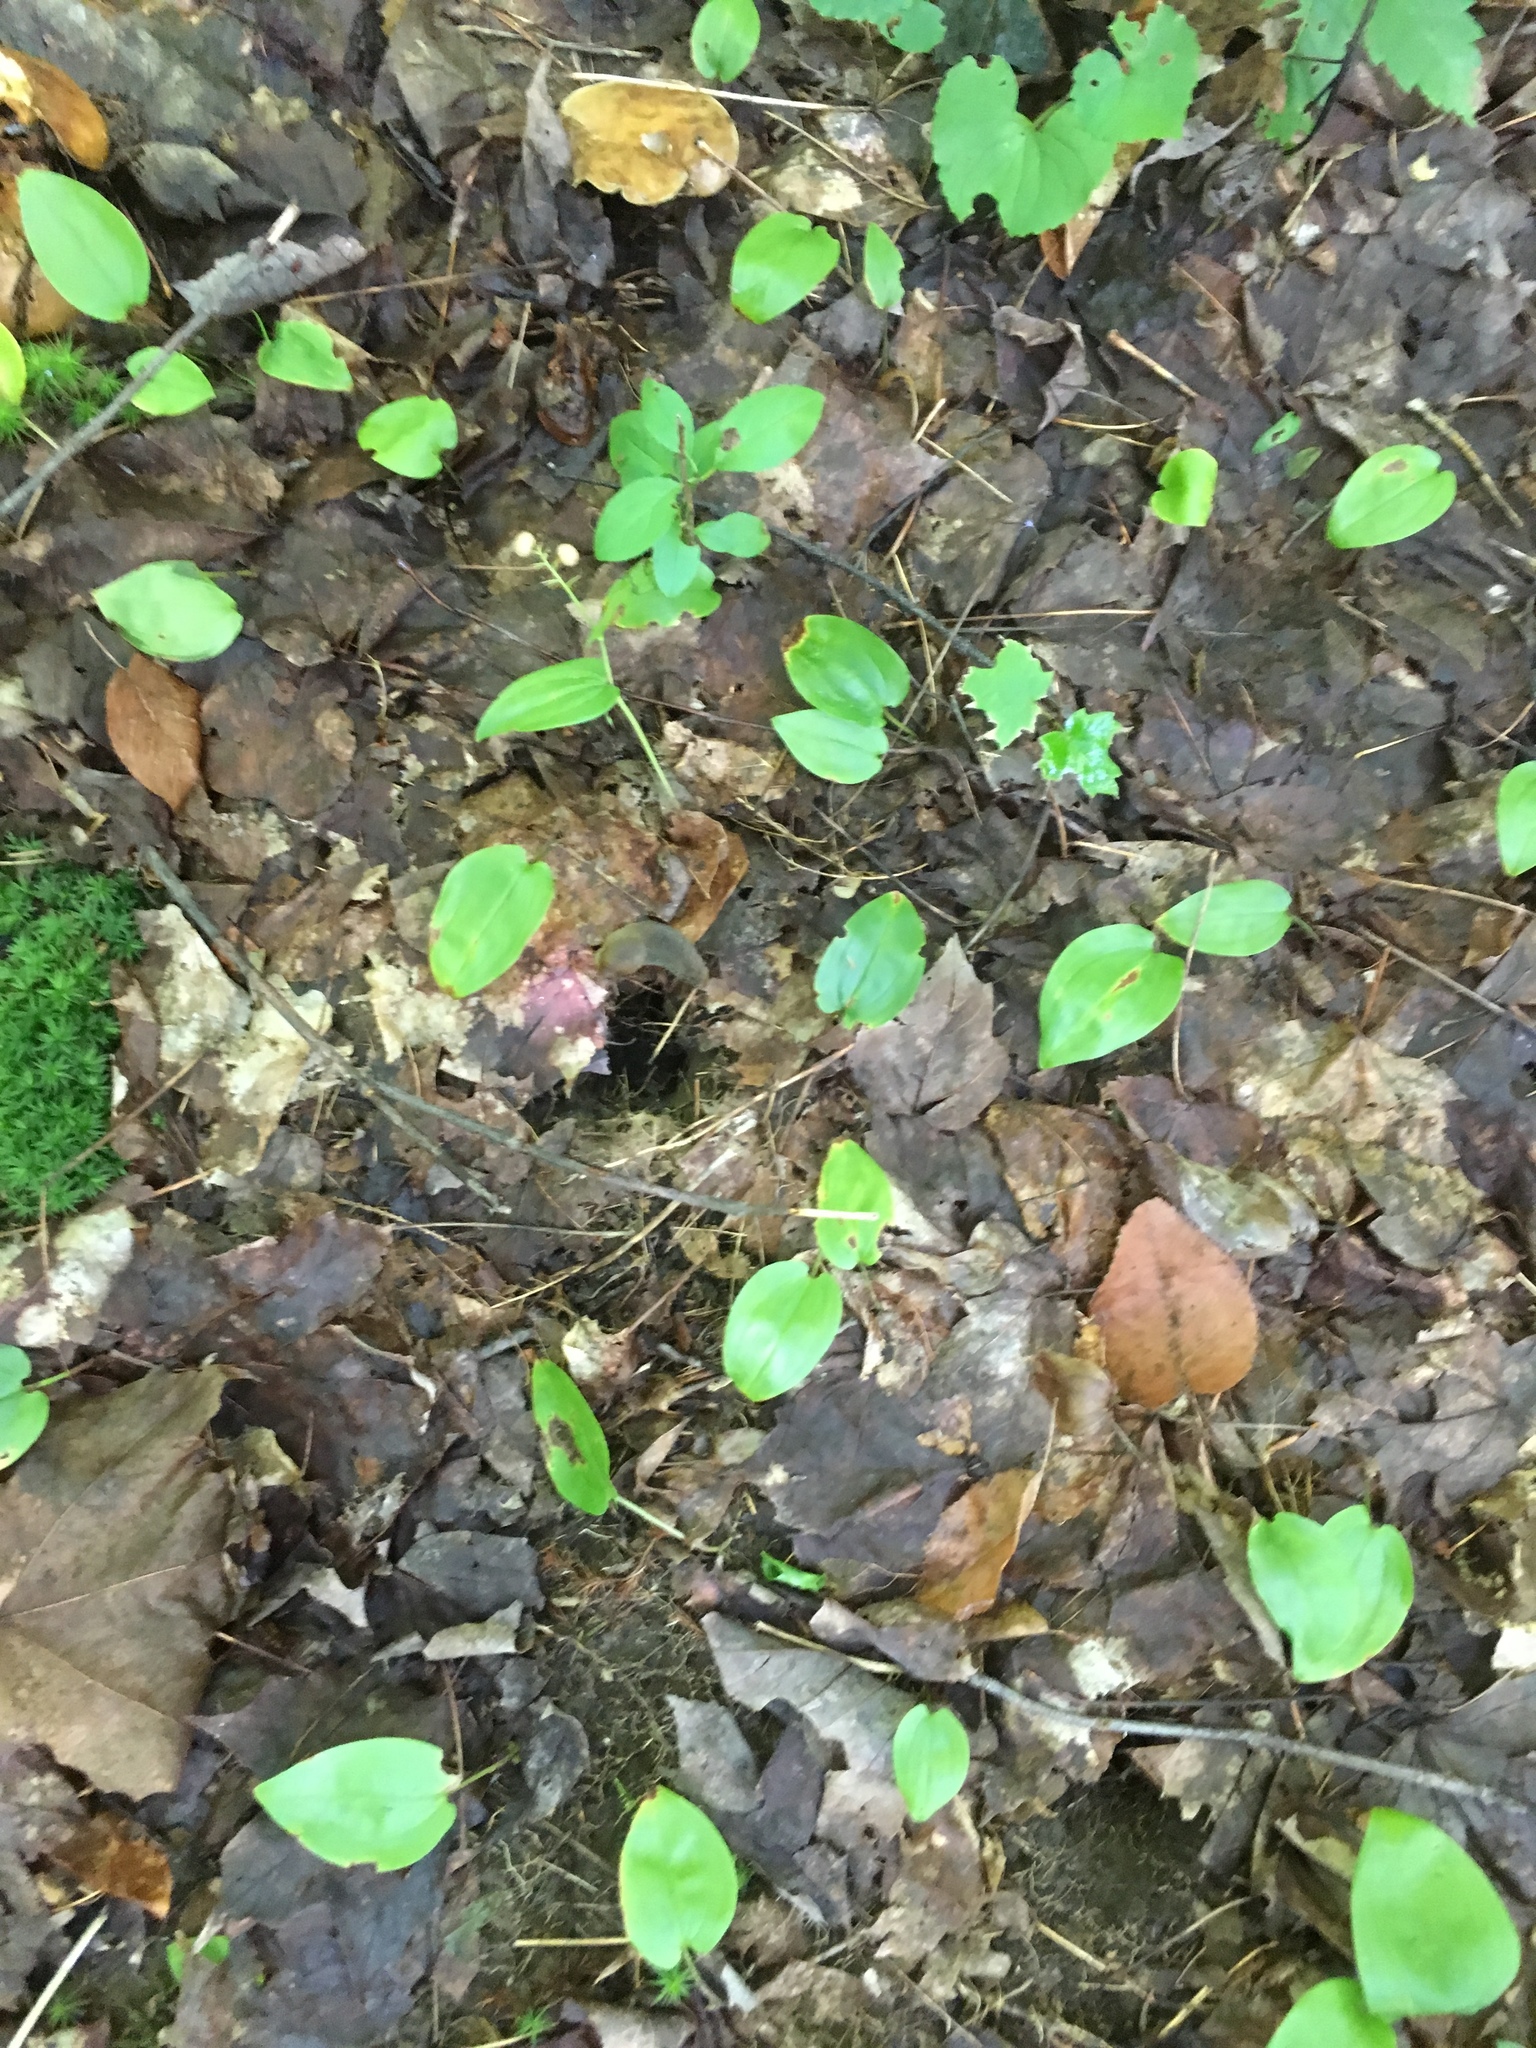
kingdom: Plantae
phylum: Tracheophyta
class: Liliopsida
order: Asparagales
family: Asparagaceae
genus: Maianthemum
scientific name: Maianthemum canadense
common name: False lily-of-the-valley
